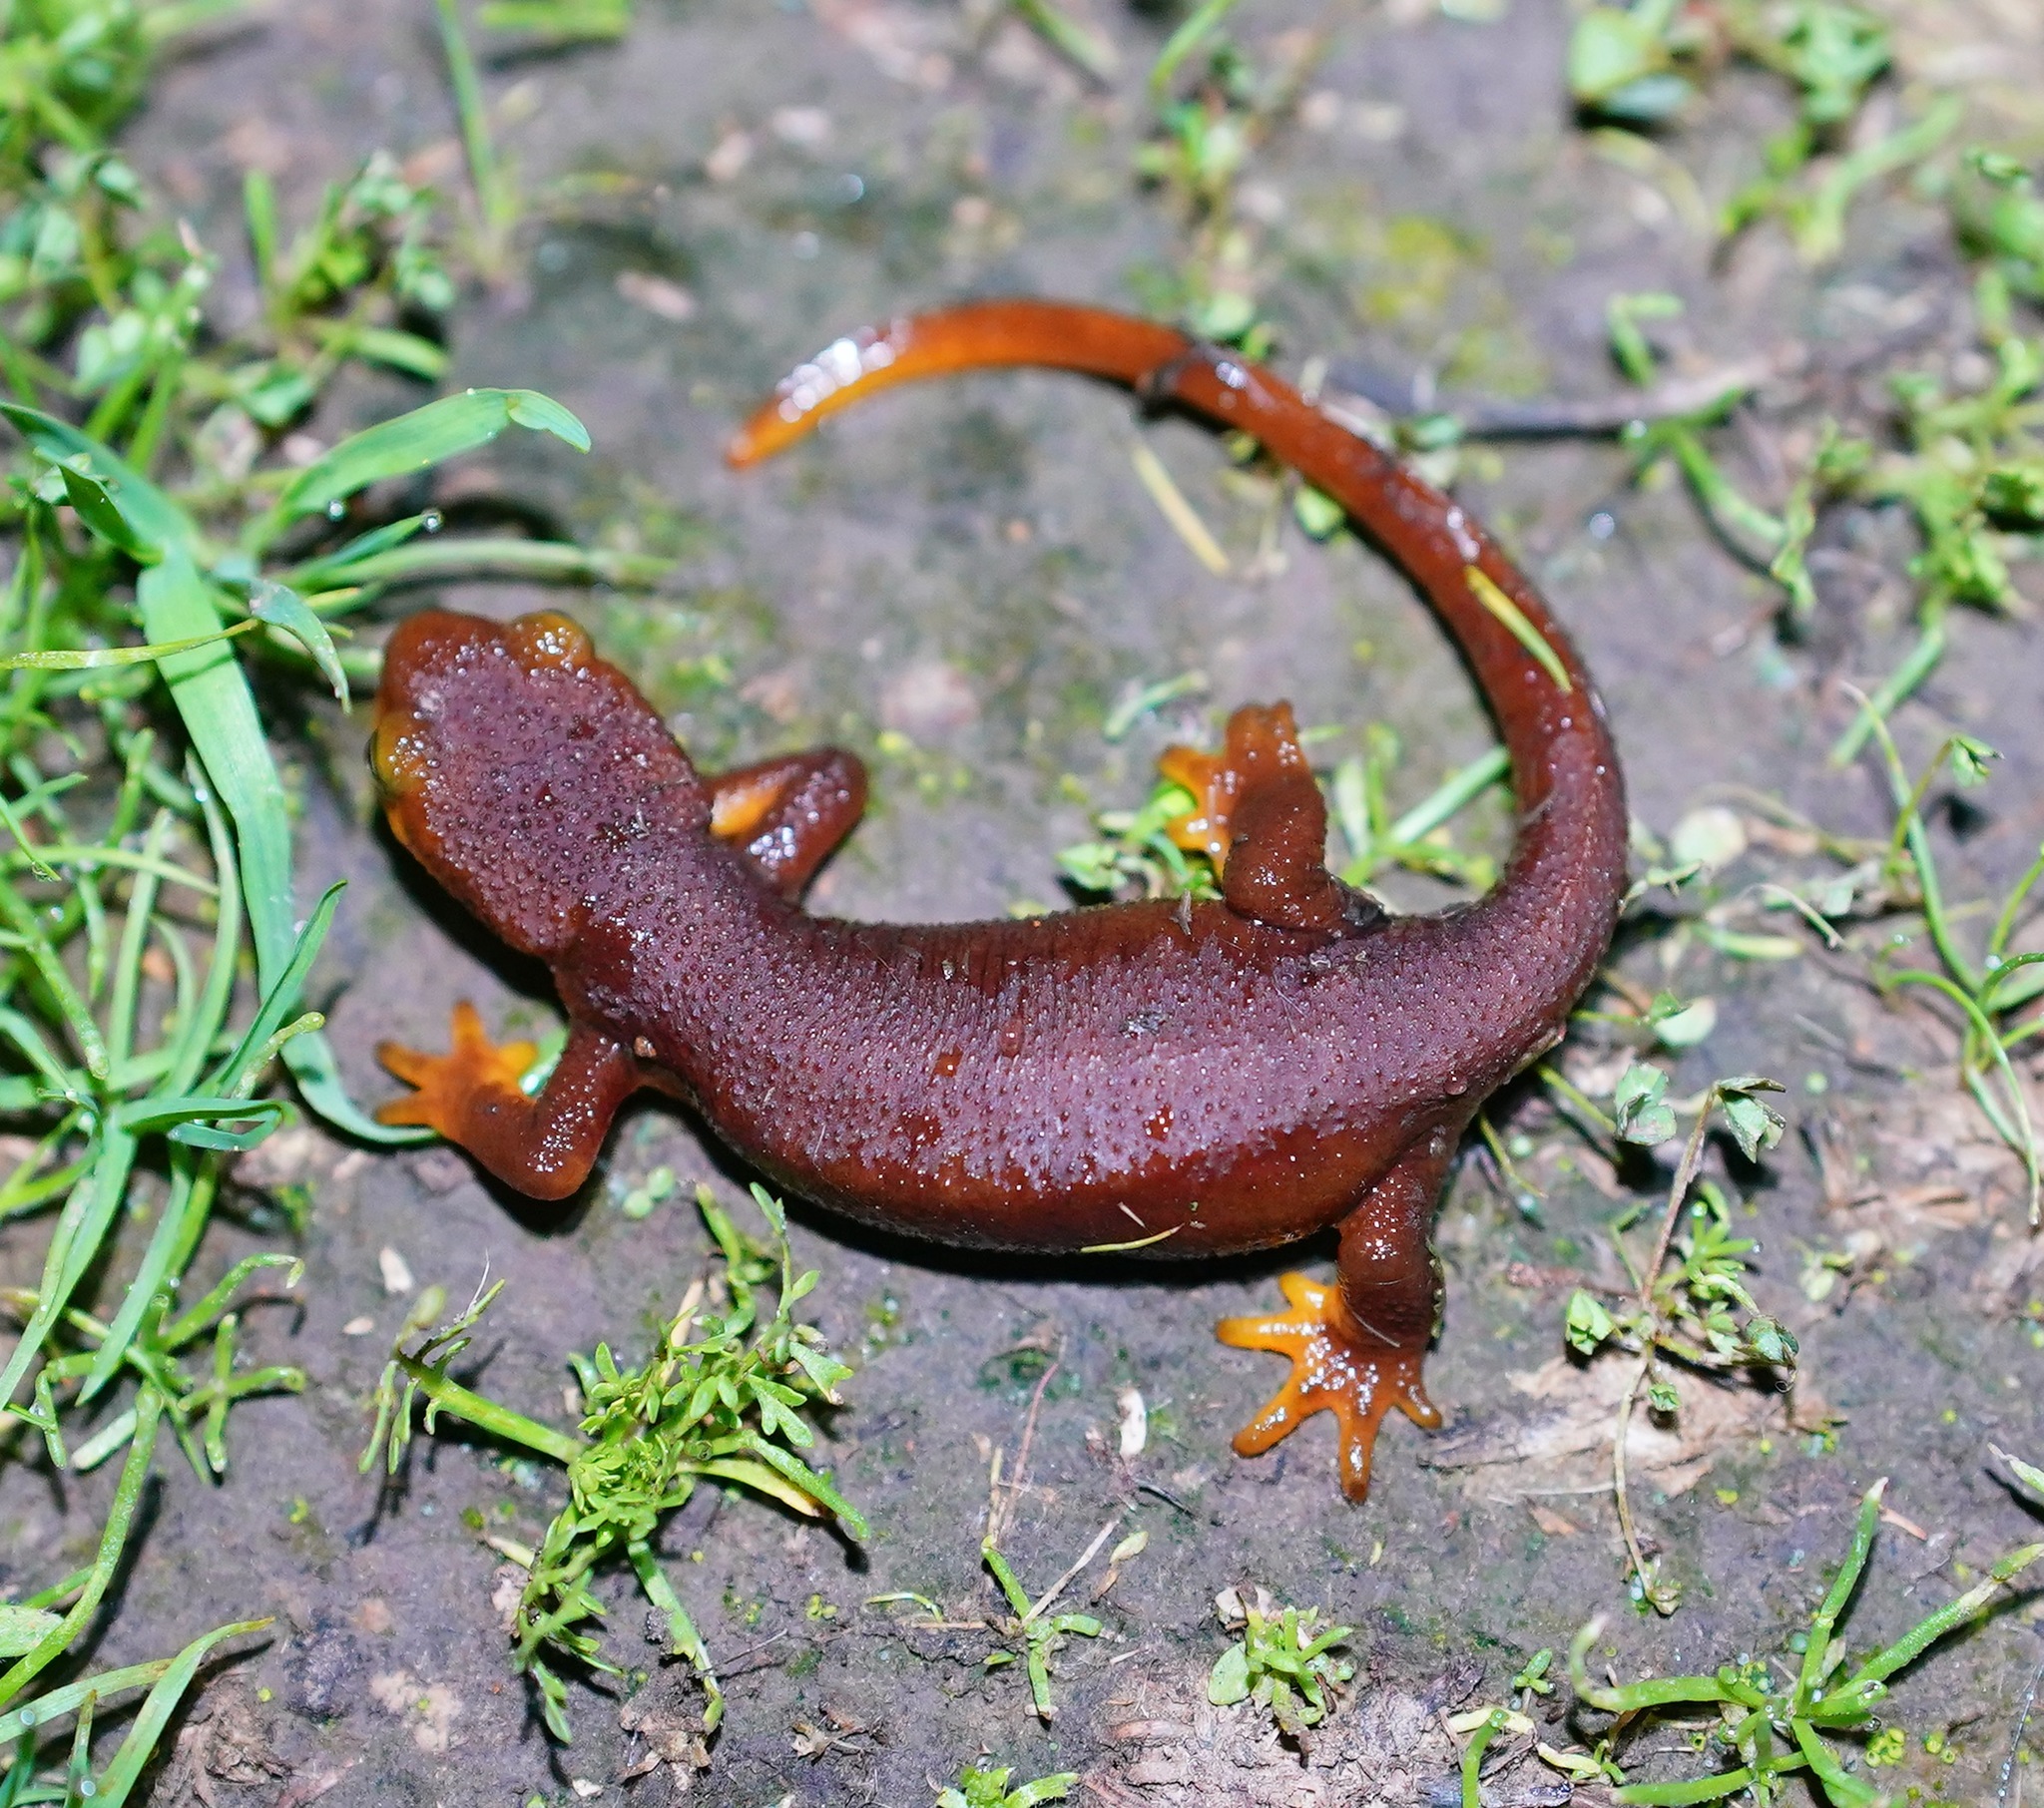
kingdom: Animalia
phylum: Chordata
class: Amphibia
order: Caudata
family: Salamandridae
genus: Taricha
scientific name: Taricha torosa
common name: California newt
